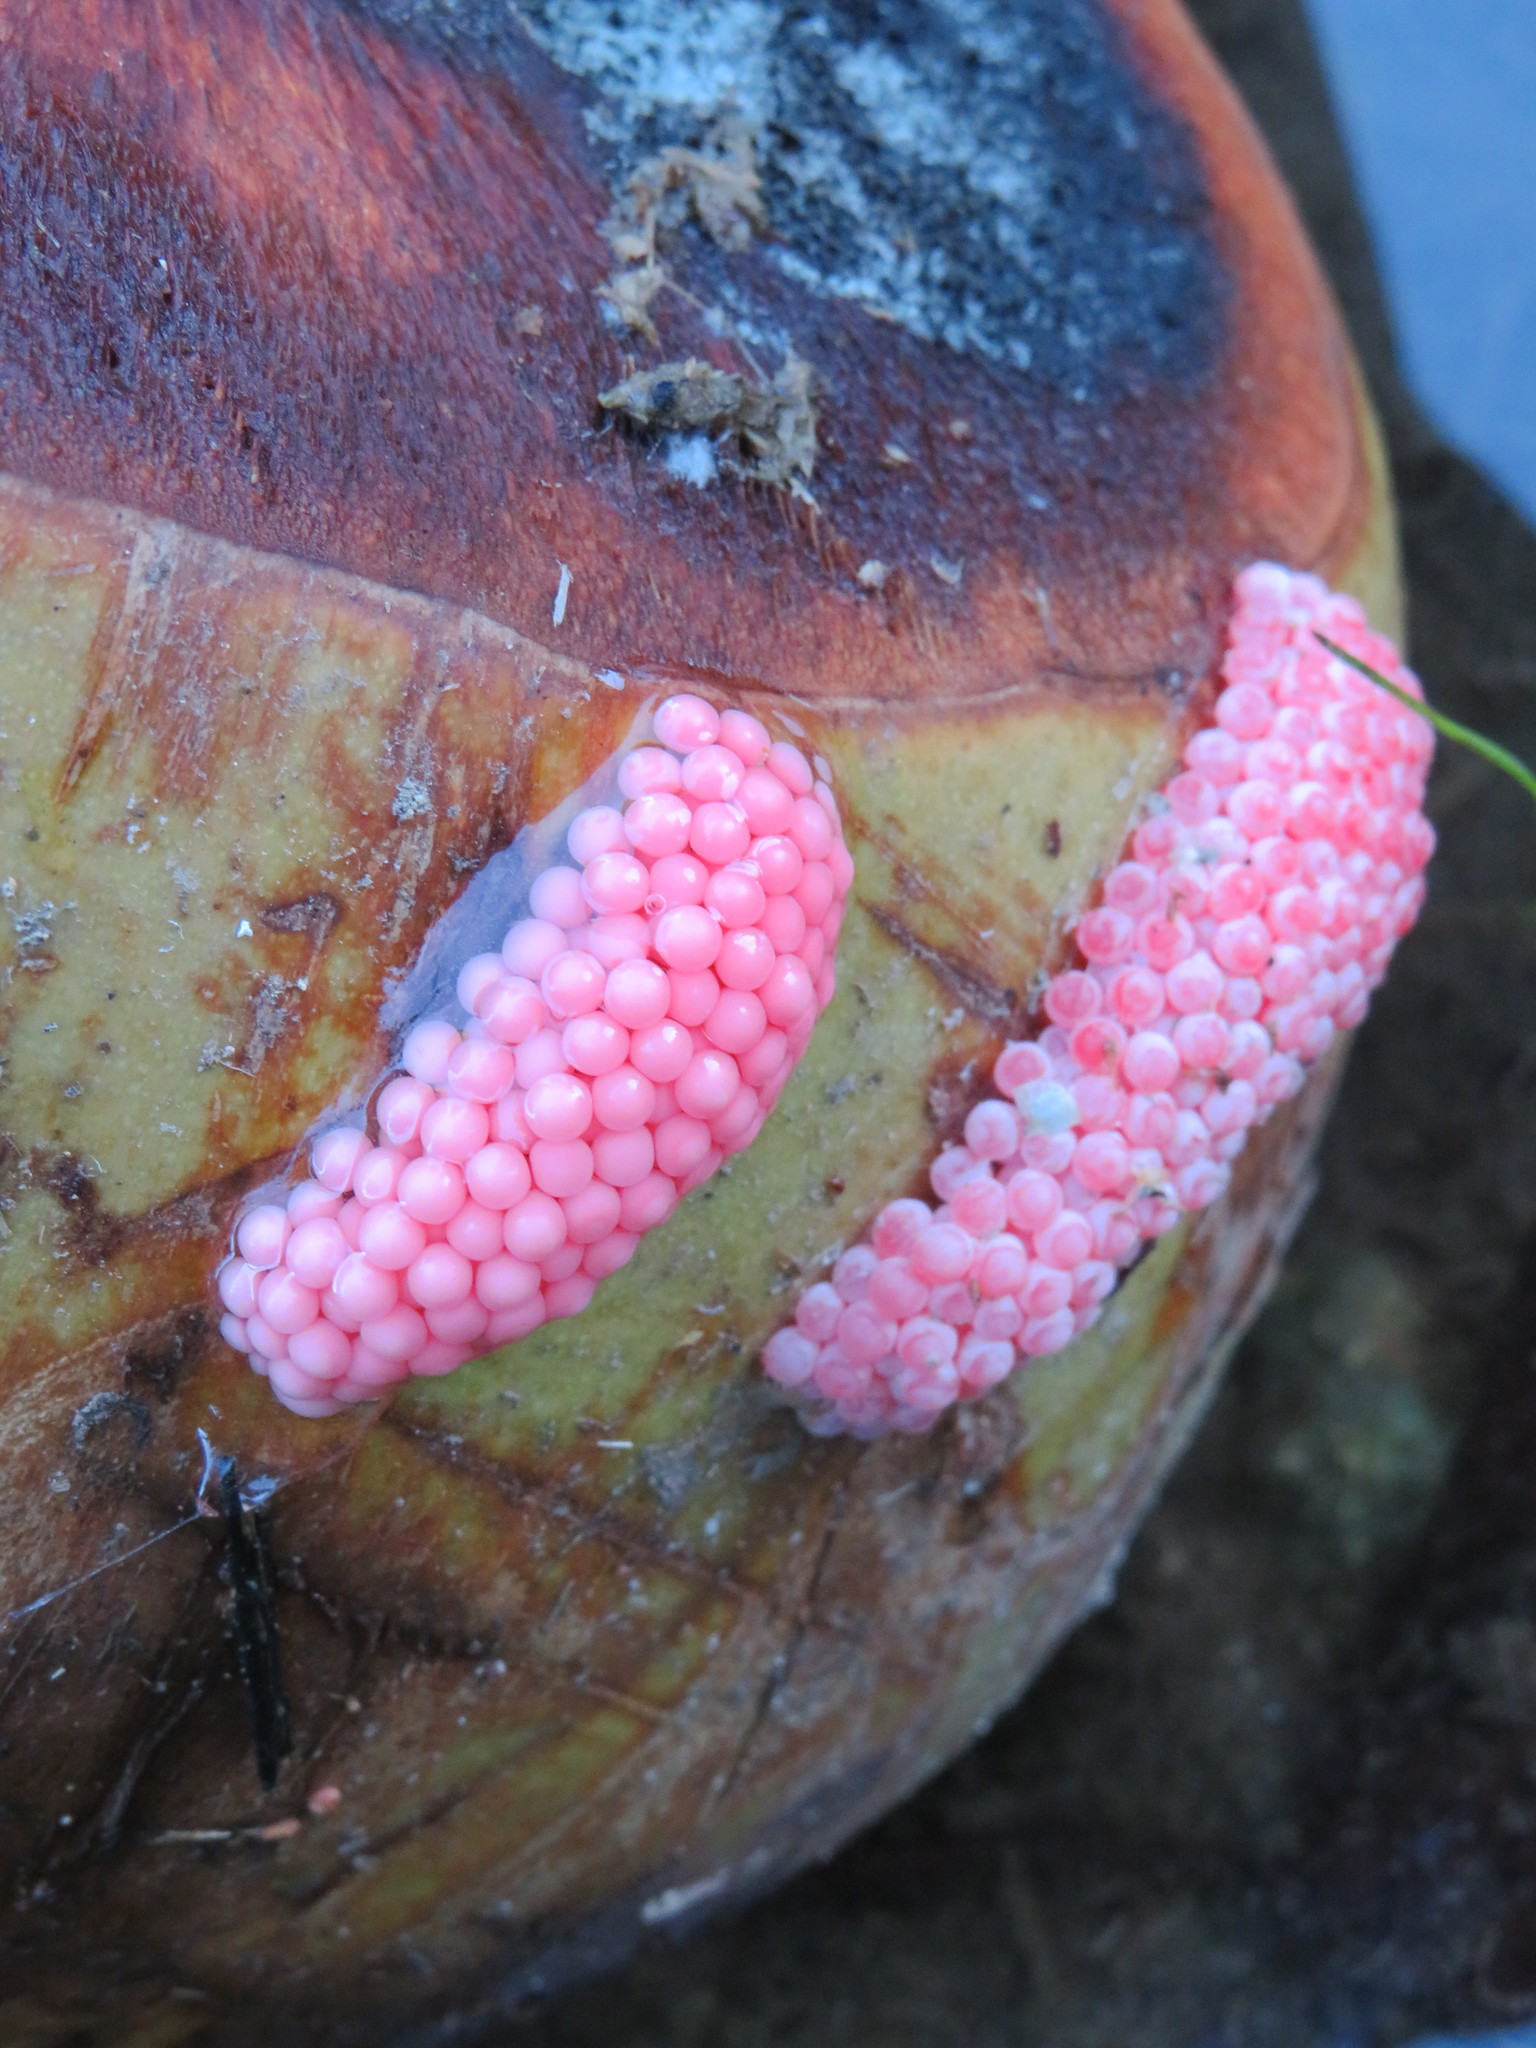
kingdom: Animalia
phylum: Mollusca
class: Gastropoda
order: Architaenioglossa
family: Ampullariidae
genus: Pomacea
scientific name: Pomacea
